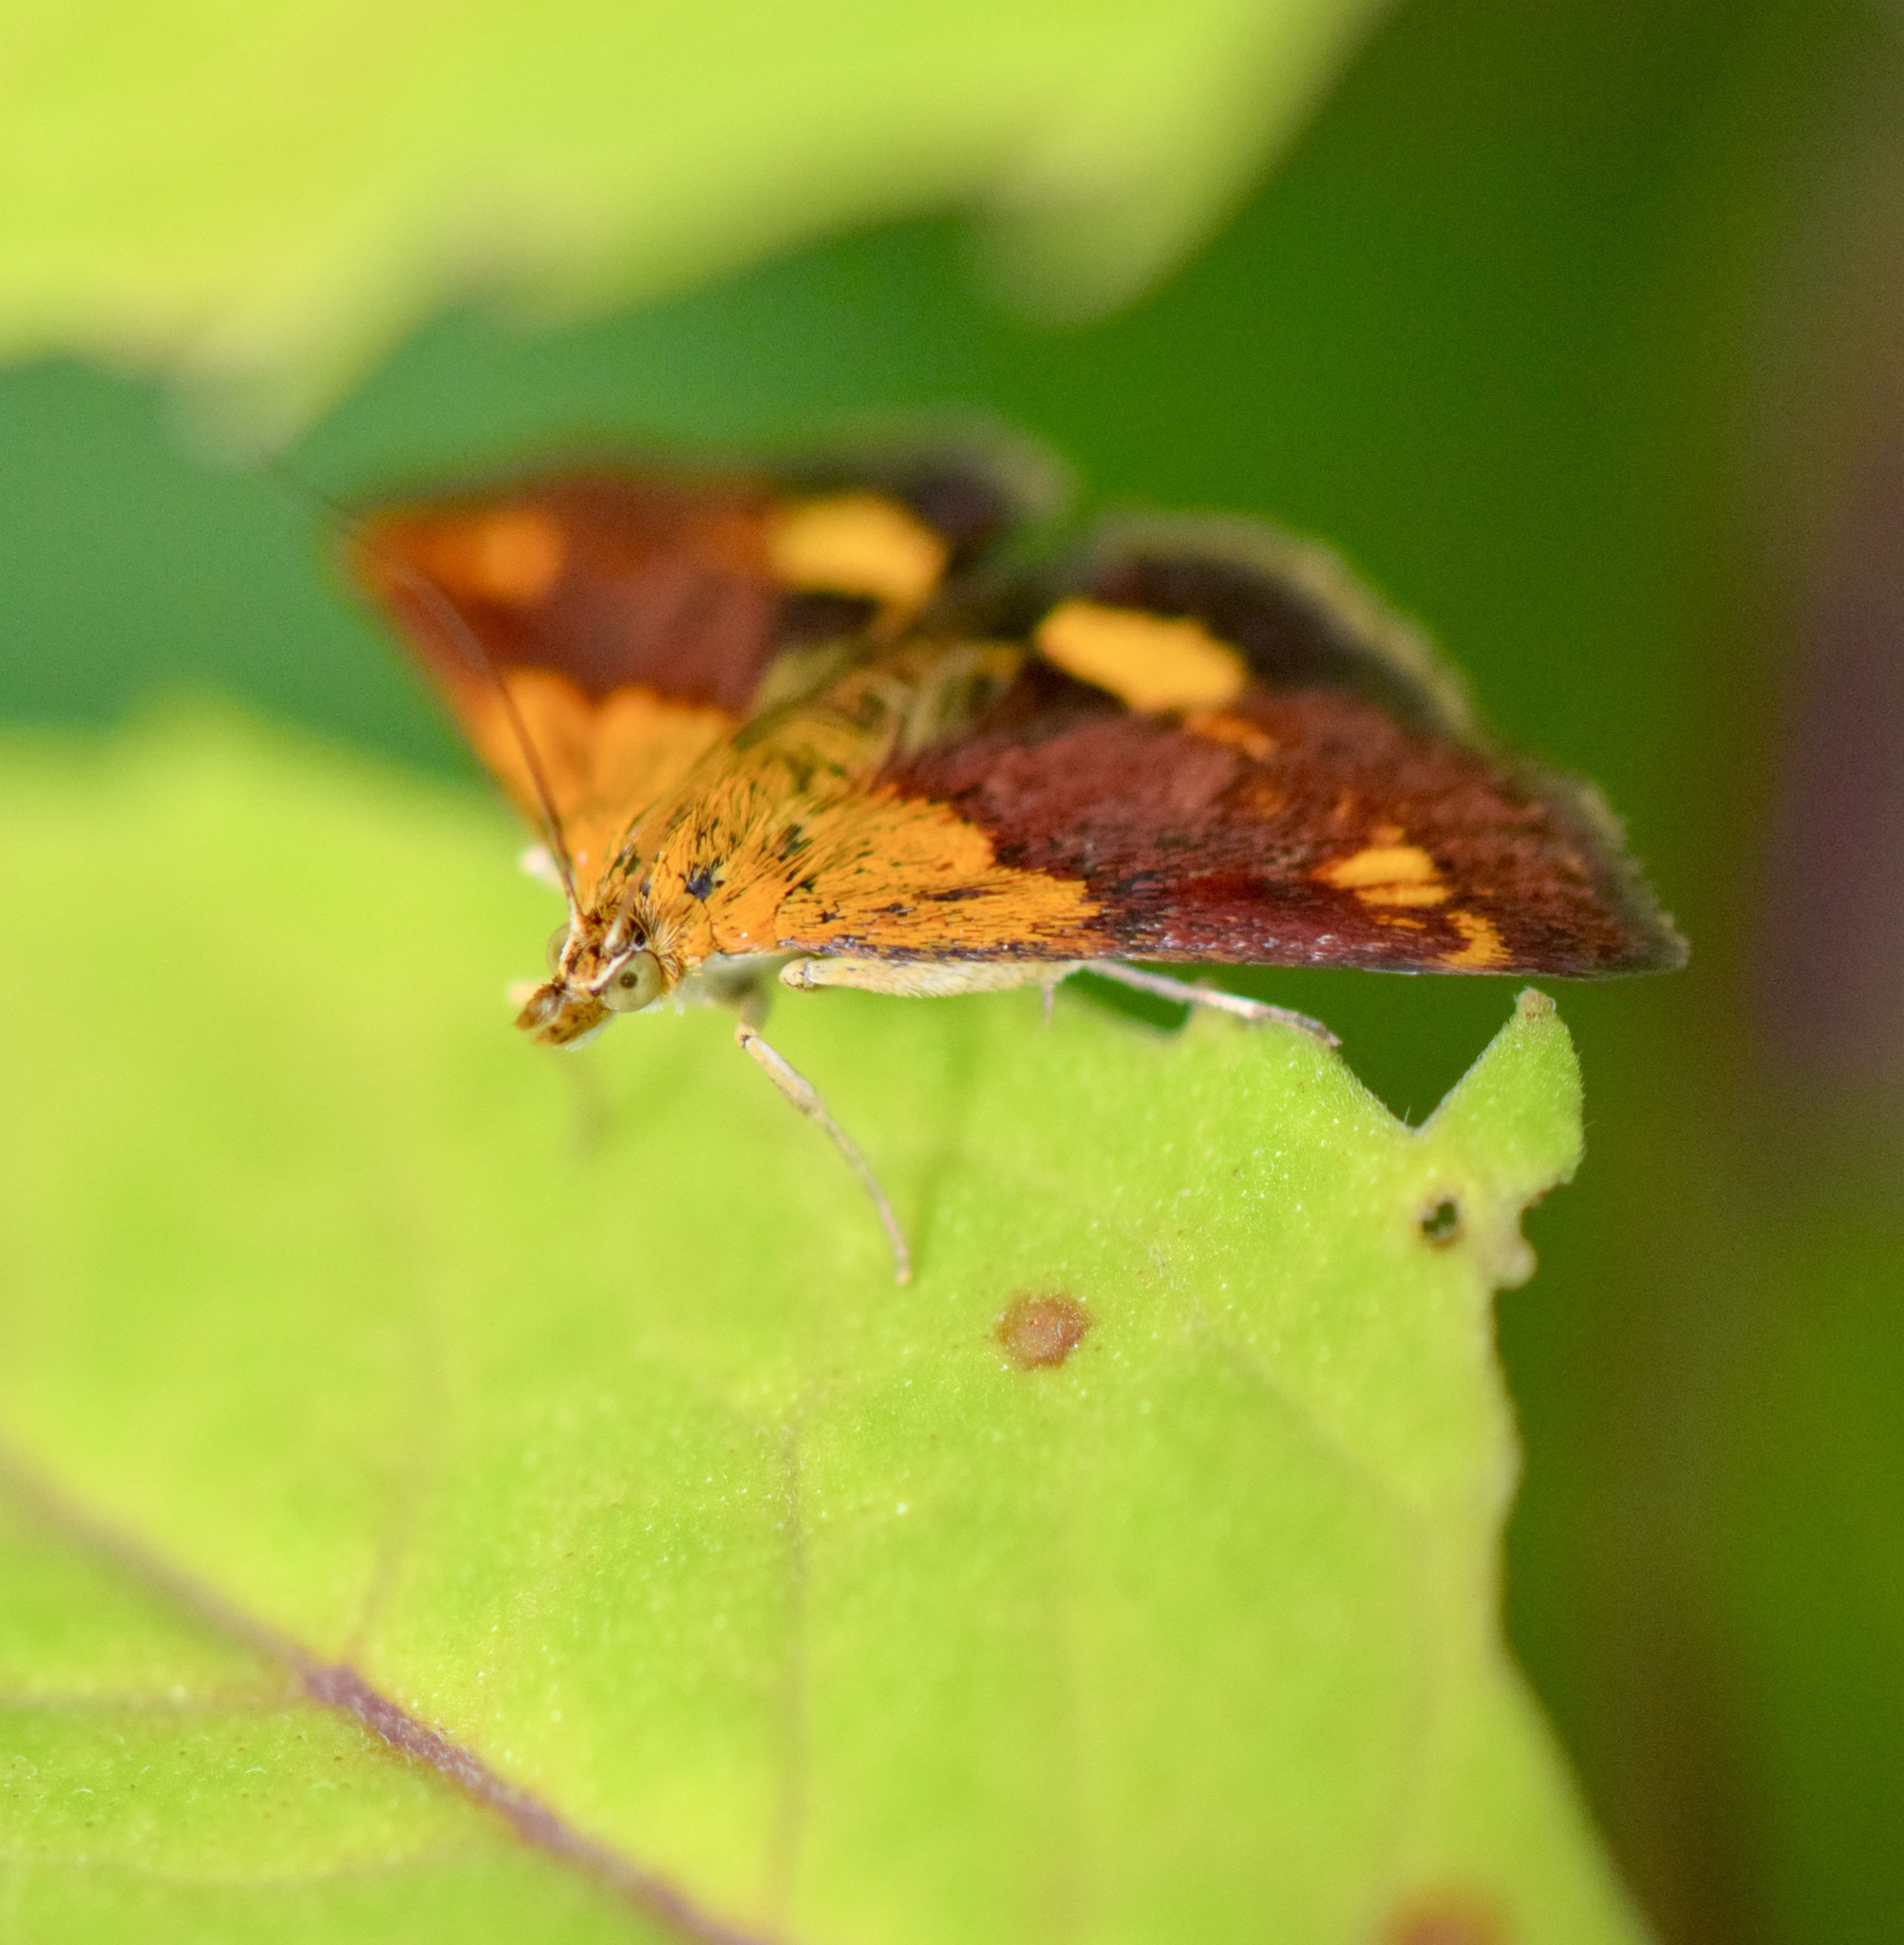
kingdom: Animalia
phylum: Arthropoda
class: Insecta
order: Lepidoptera
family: Crambidae
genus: Pyrausta
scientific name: Pyrausta orphisalis
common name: Orange mint moth
